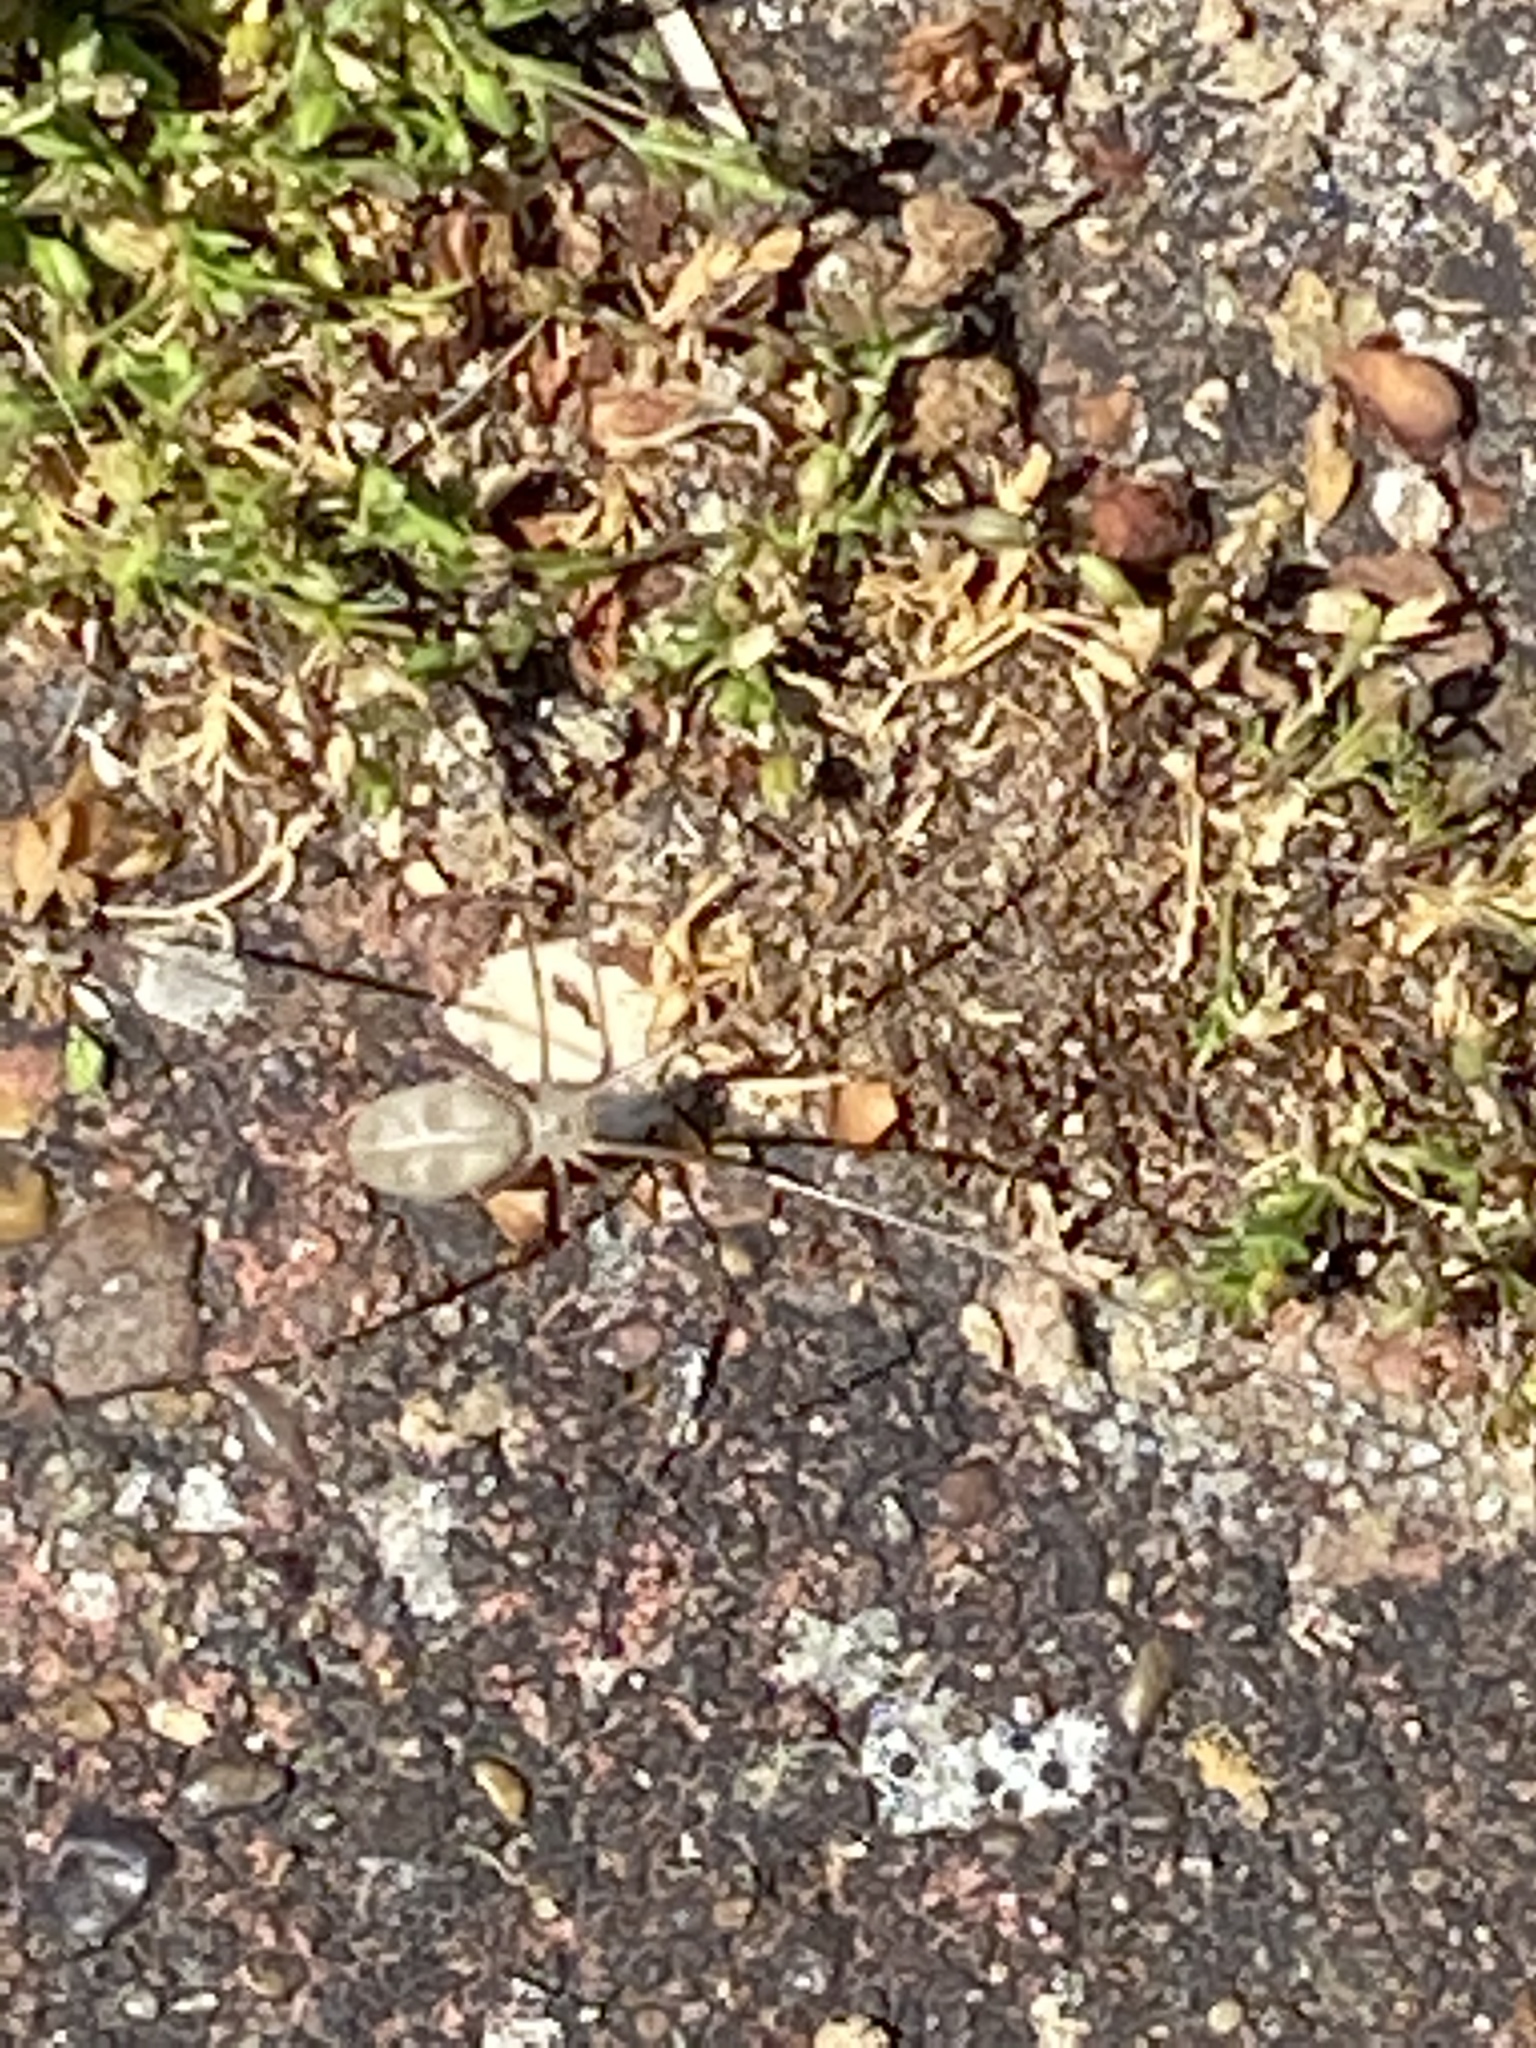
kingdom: Animalia
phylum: Arthropoda
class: Arachnida
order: Araneae
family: Pholcidae
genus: Pholcus
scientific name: Pholcus phalangioides
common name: Longbodied cellar spider
